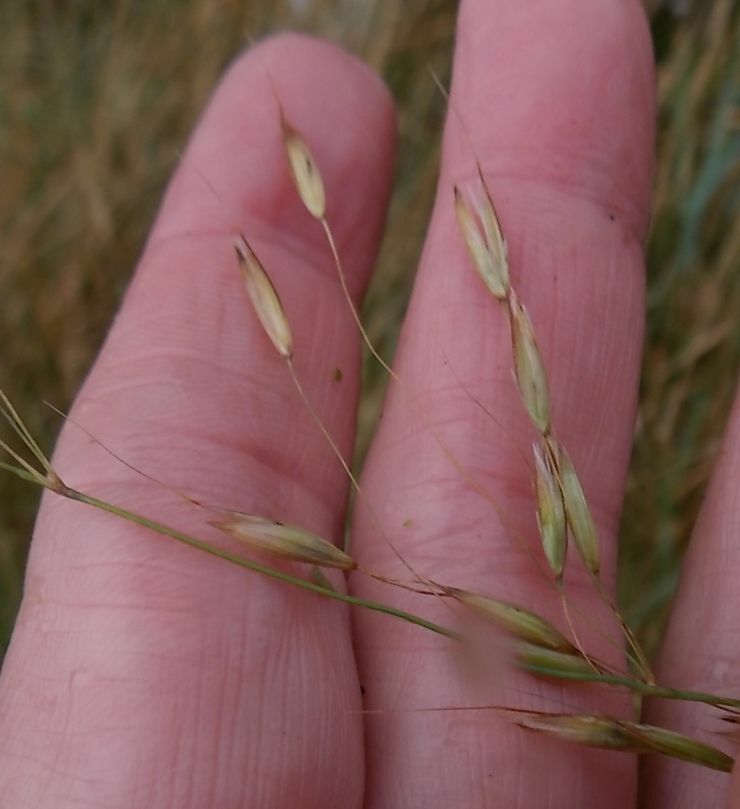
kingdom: Plantae
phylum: Tracheophyta
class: Liliopsida
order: Poales
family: Poaceae
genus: Arrhenatherum
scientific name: Arrhenatherum elatius
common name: Tall oatgrass
